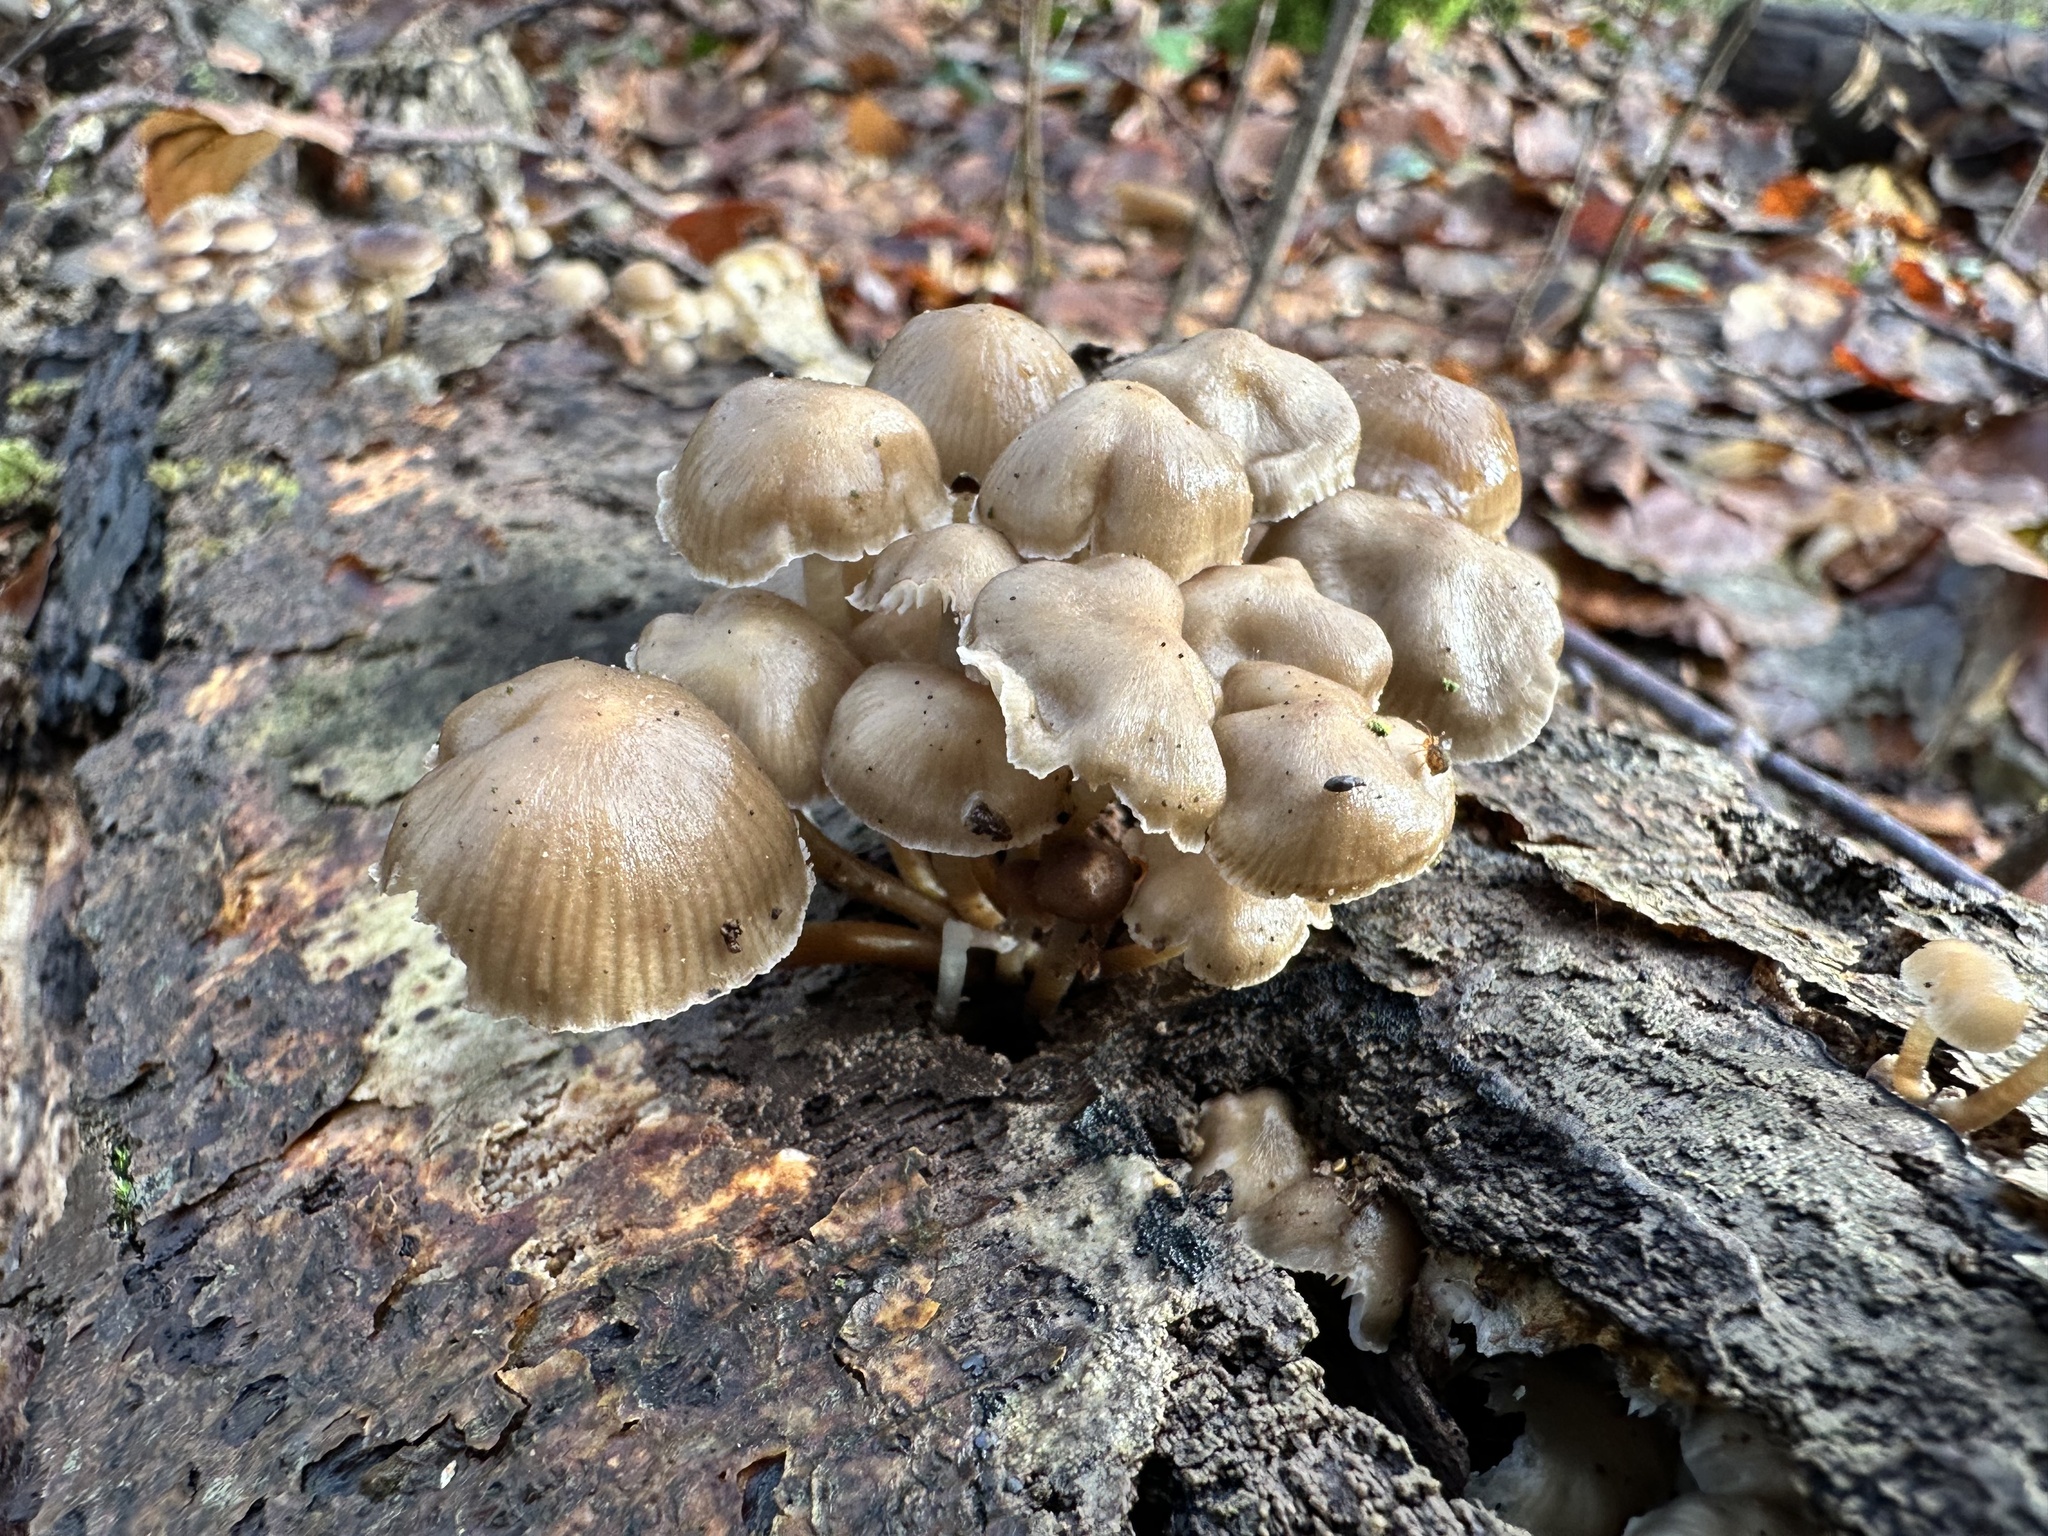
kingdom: Fungi
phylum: Basidiomycota
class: Agaricomycetes
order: Agaricales
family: Mycenaceae
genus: Mycena
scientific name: Mycena tintinnabulum
